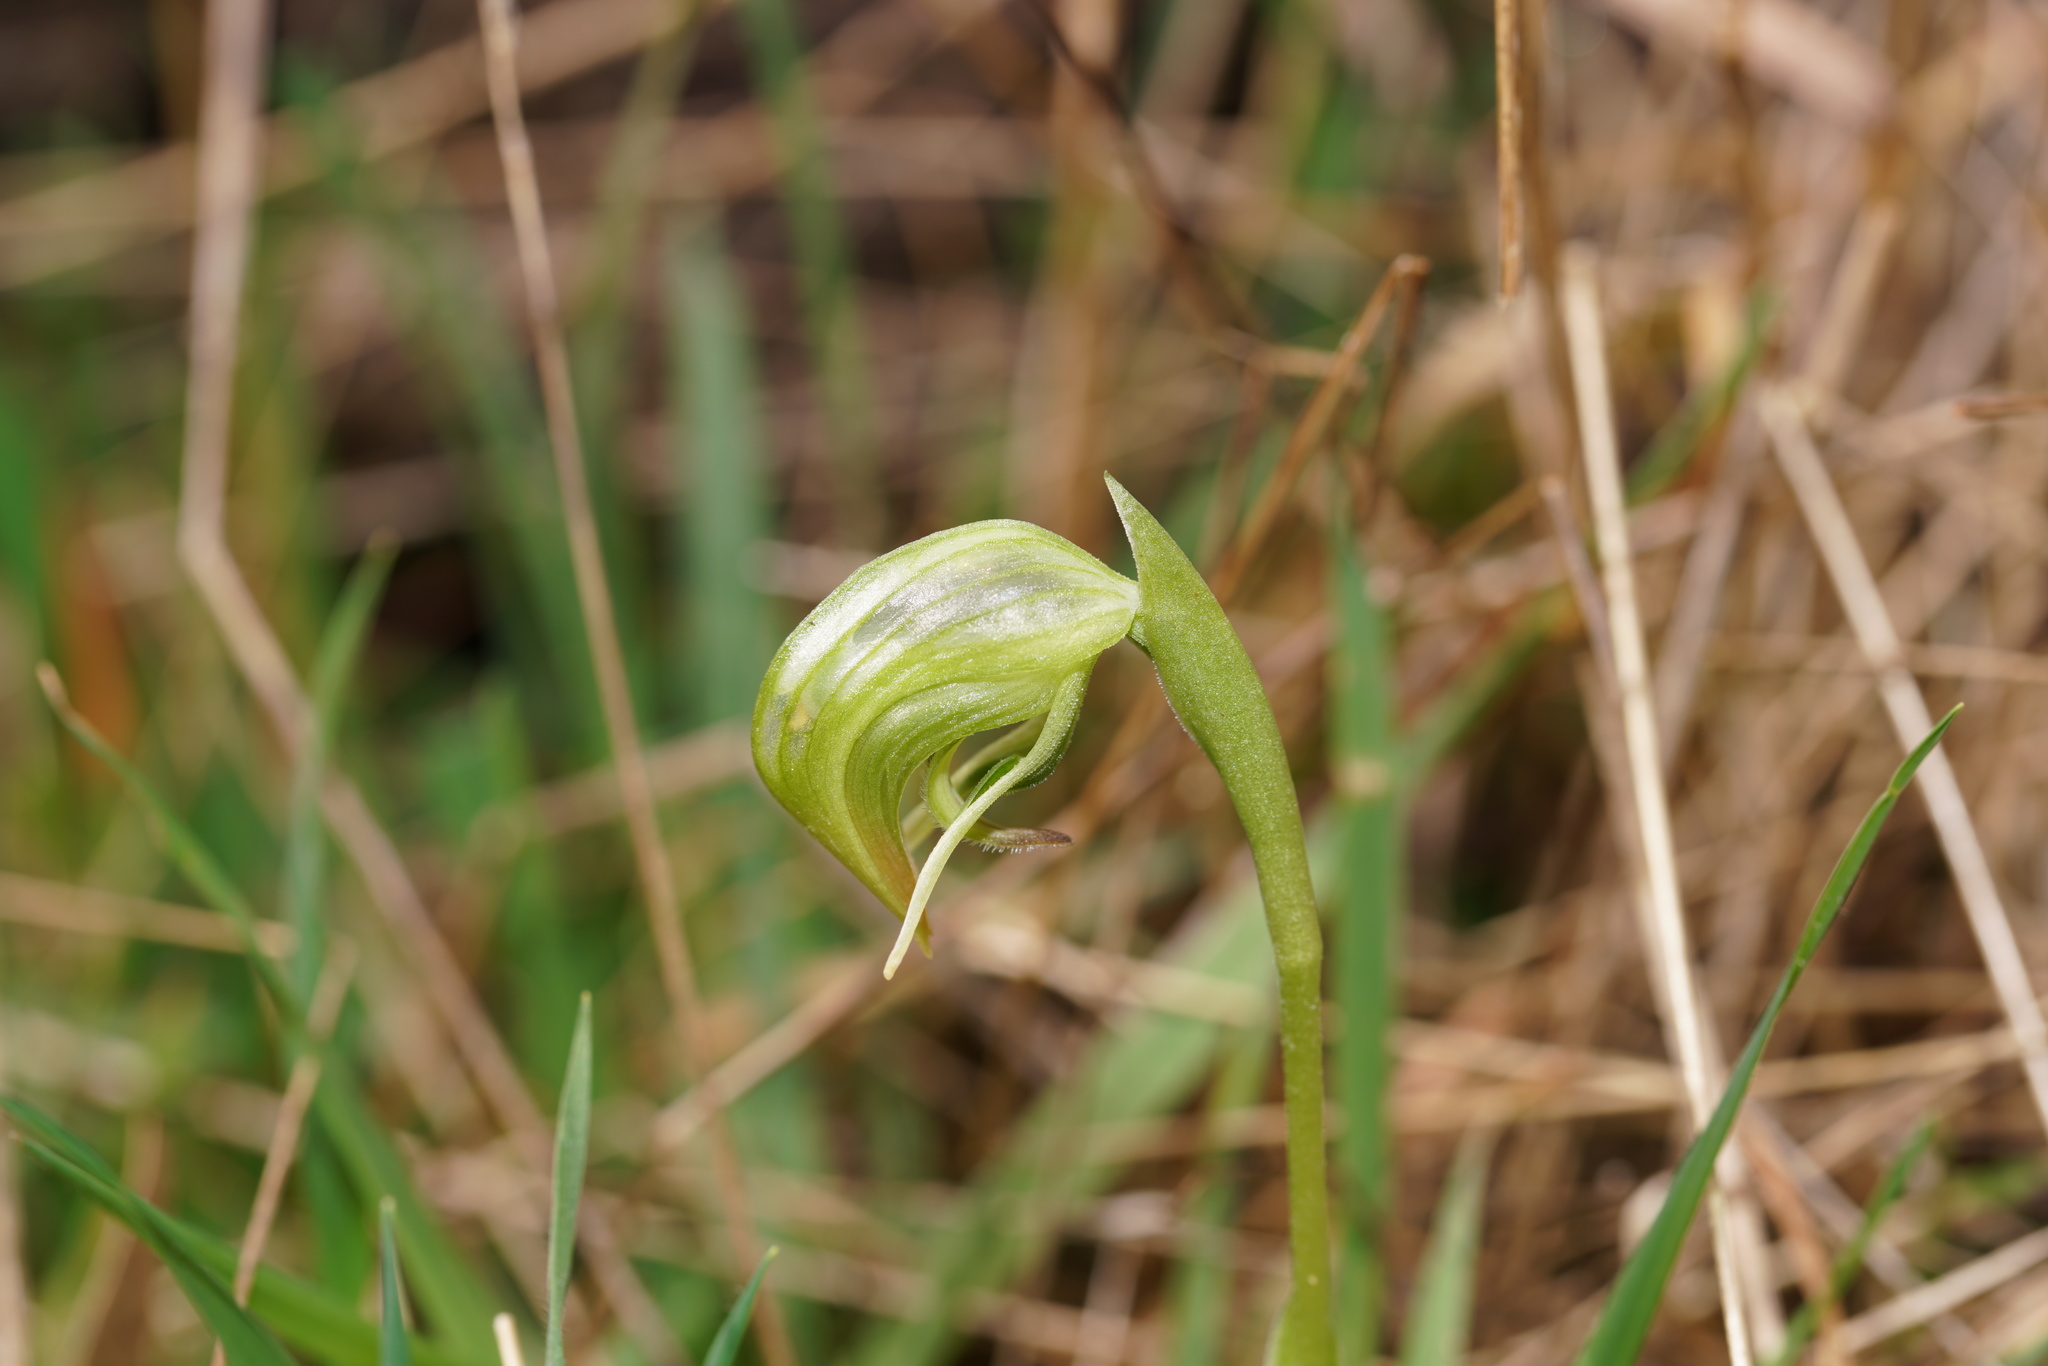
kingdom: Plantae
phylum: Tracheophyta
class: Liliopsida
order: Asparagales
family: Orchidaceae
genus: Pterostylis
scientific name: Pterostylis nutans
